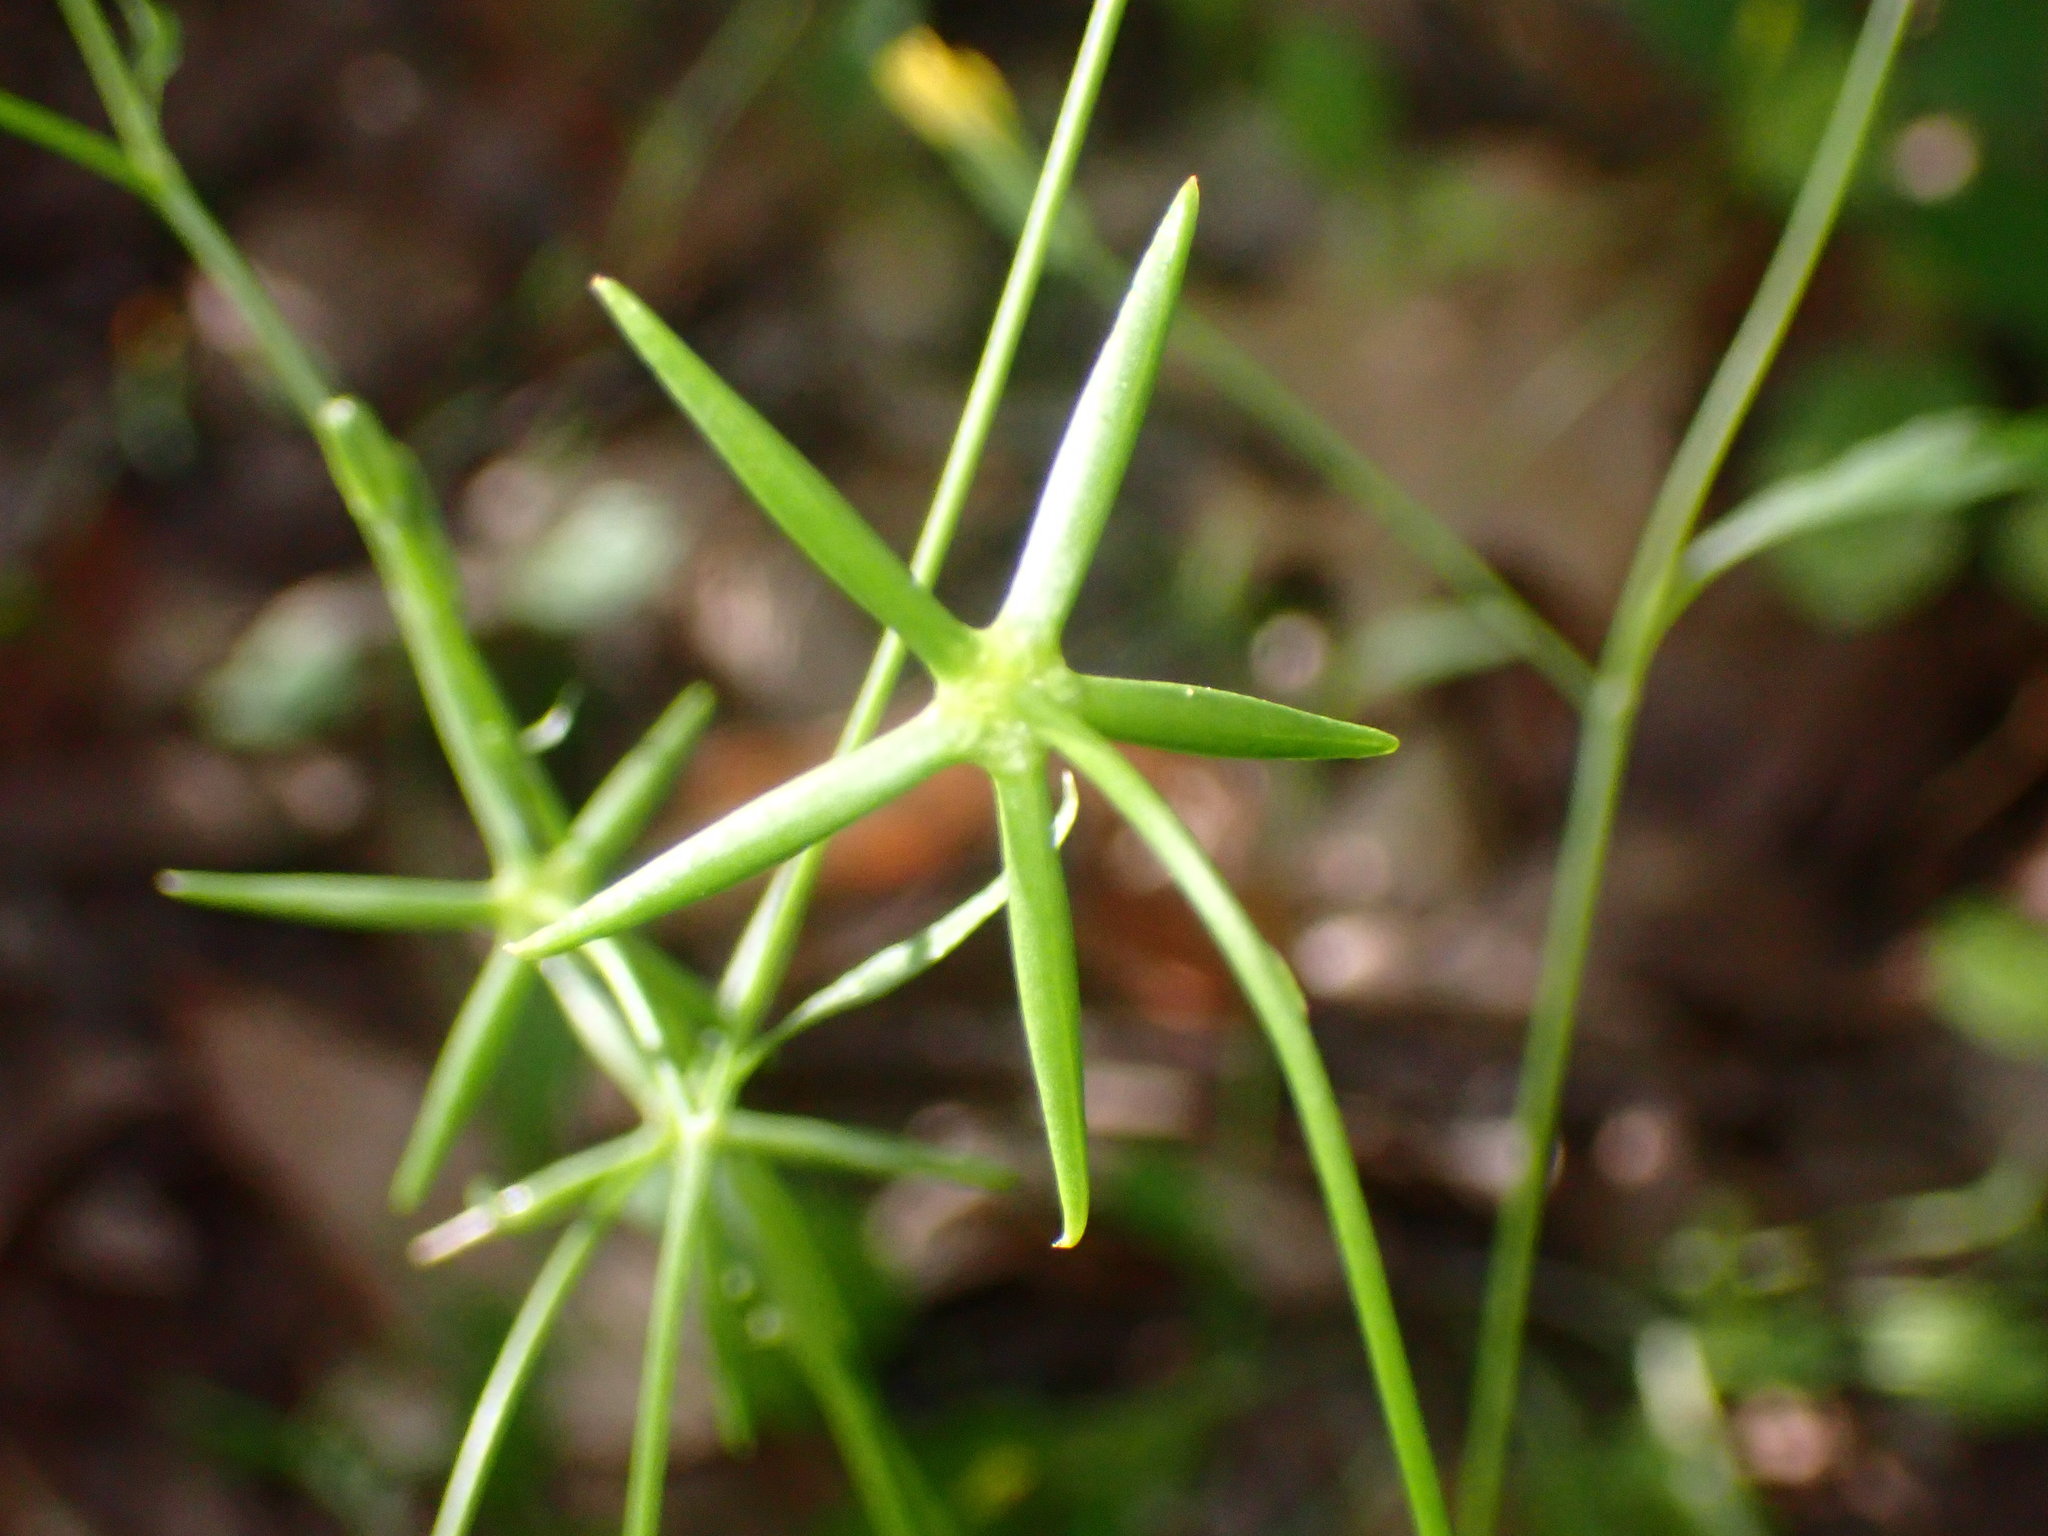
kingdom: Plantae
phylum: Tracheophyta
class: Magnoliopsida
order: Asterales
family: Asteraceae
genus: Rhagadiolus
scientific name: Rhagadiolus stellatus
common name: Star hawkbit
